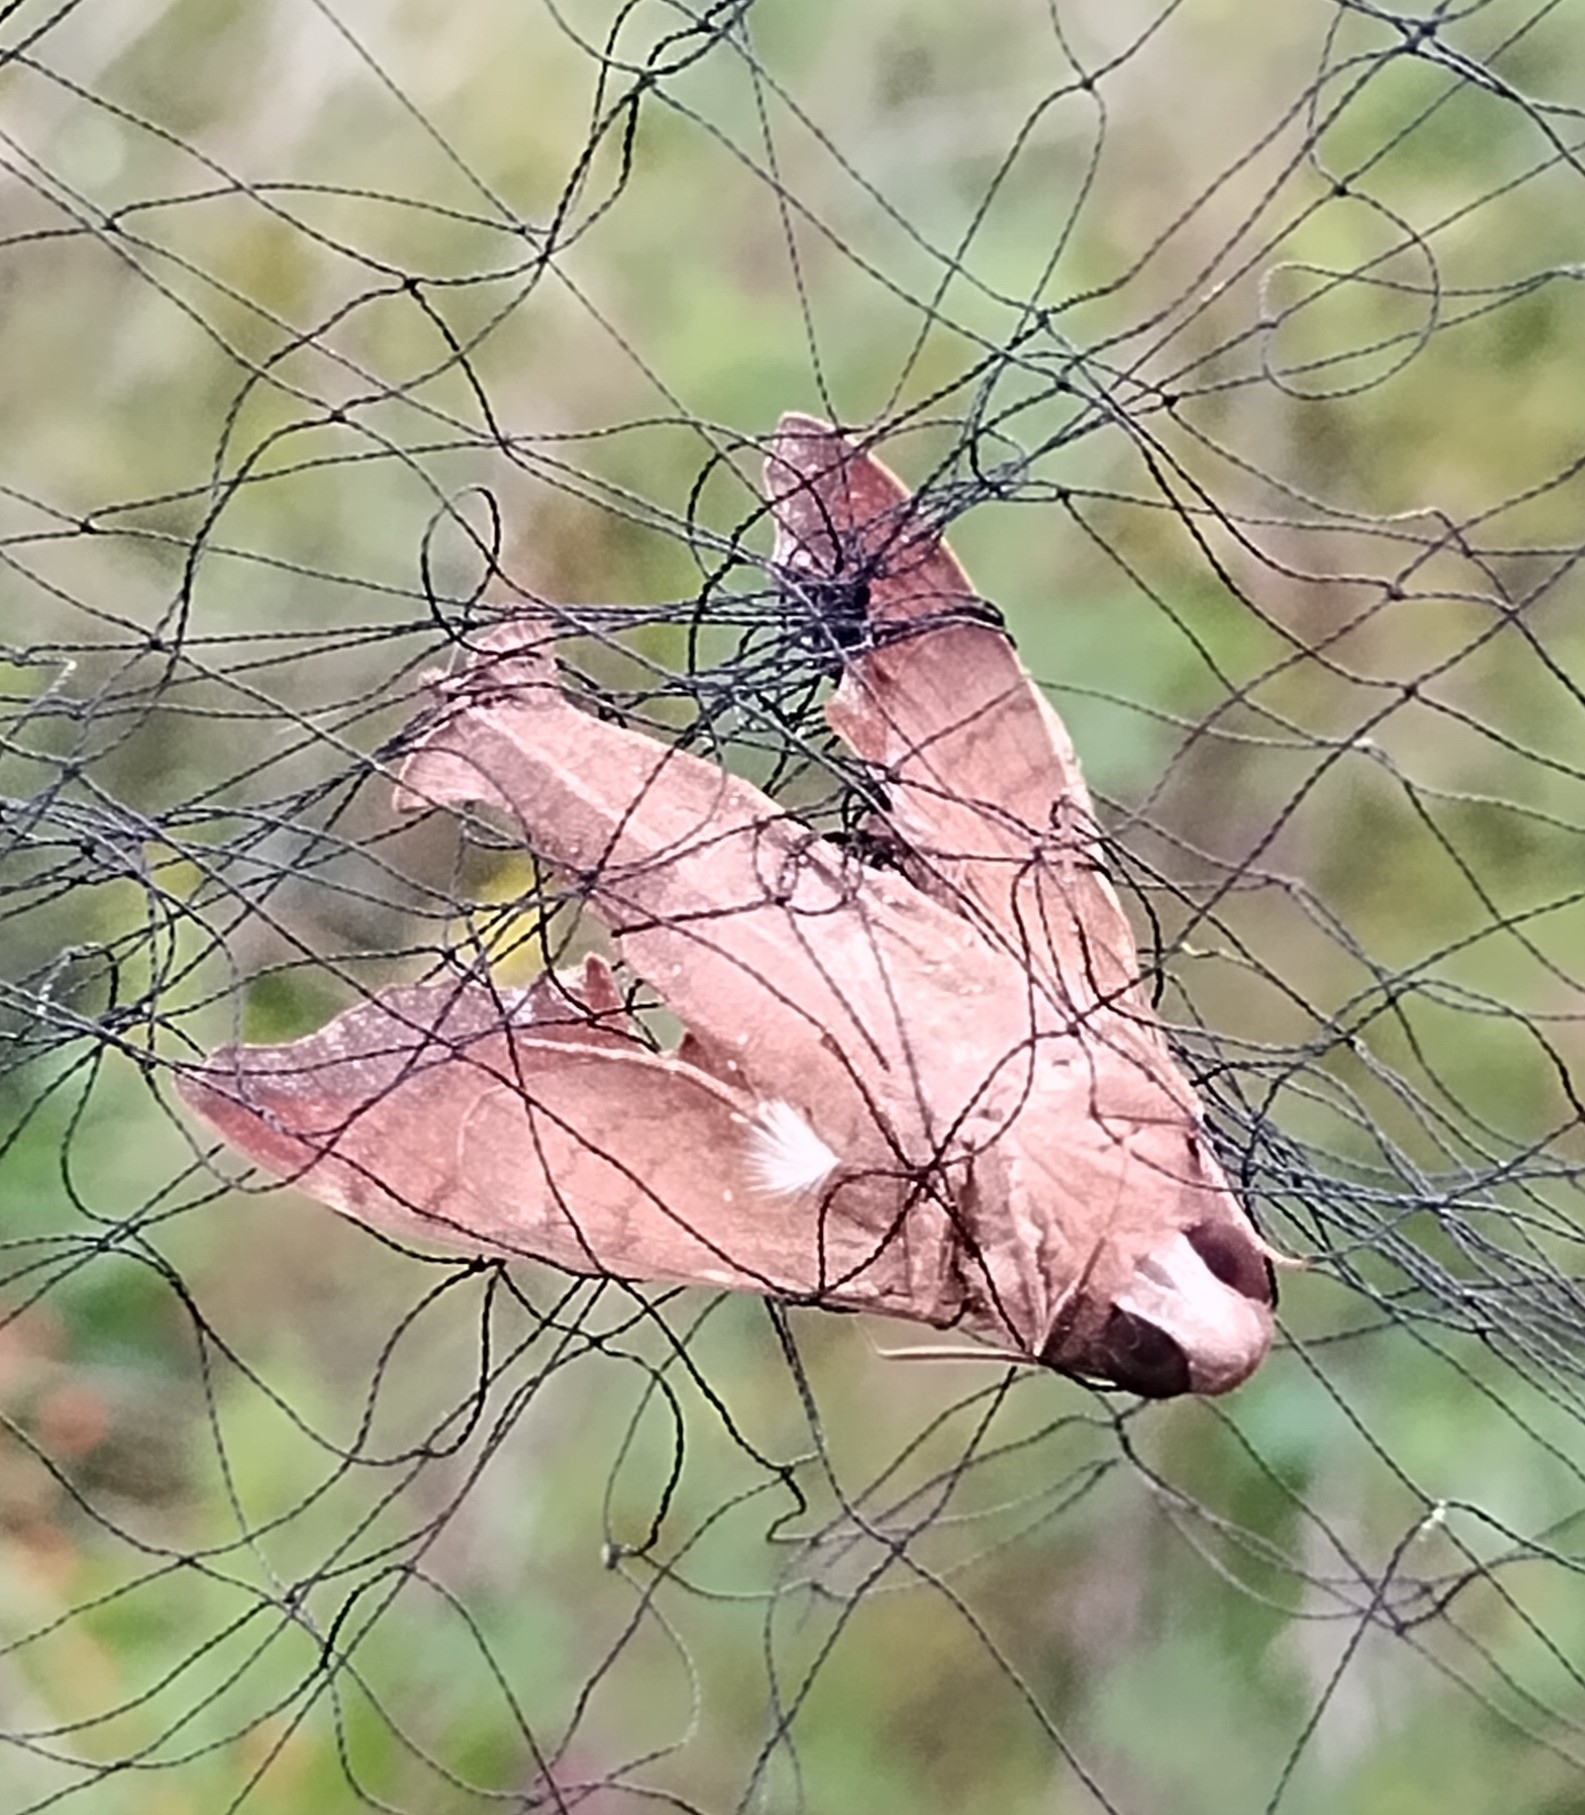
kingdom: Animalia
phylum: Arthropoda
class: Insecta
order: Lepidoptera
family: Sphingidae
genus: Enyo
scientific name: Enyo lugubris
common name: Mournful sphinx
